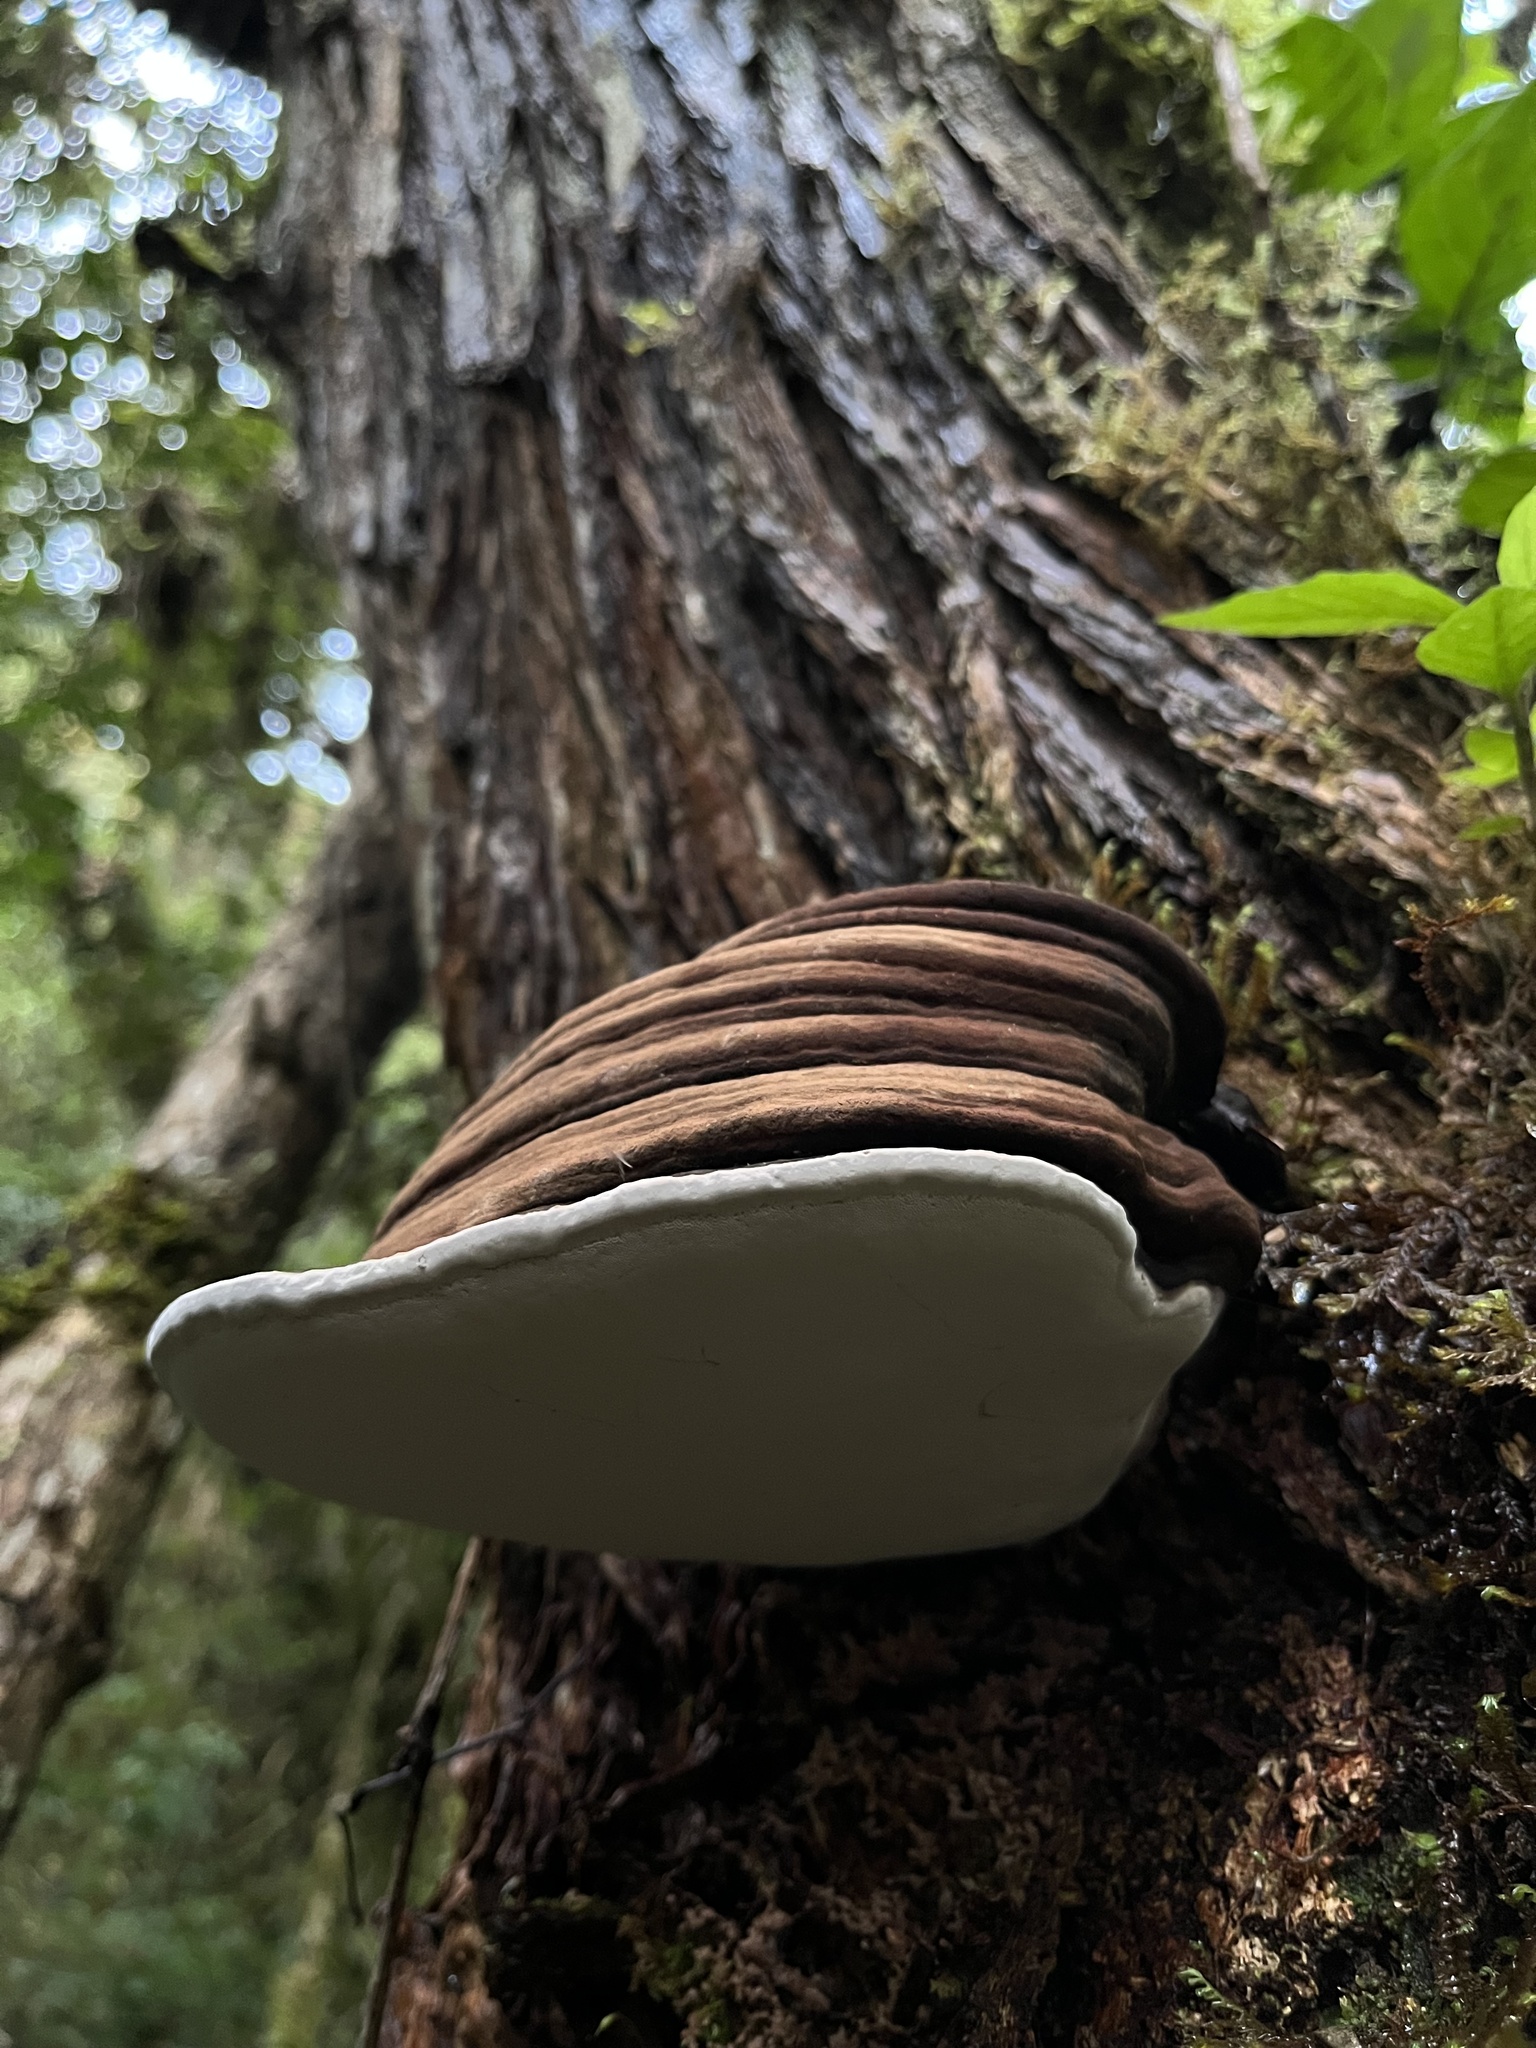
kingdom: Fungi
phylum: Basidiomycota
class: Agaricomycetes
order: Polyporales
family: Polyporaceae
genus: Ganoderma
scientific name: Ganoderma applanatum
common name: Artist's bracket
